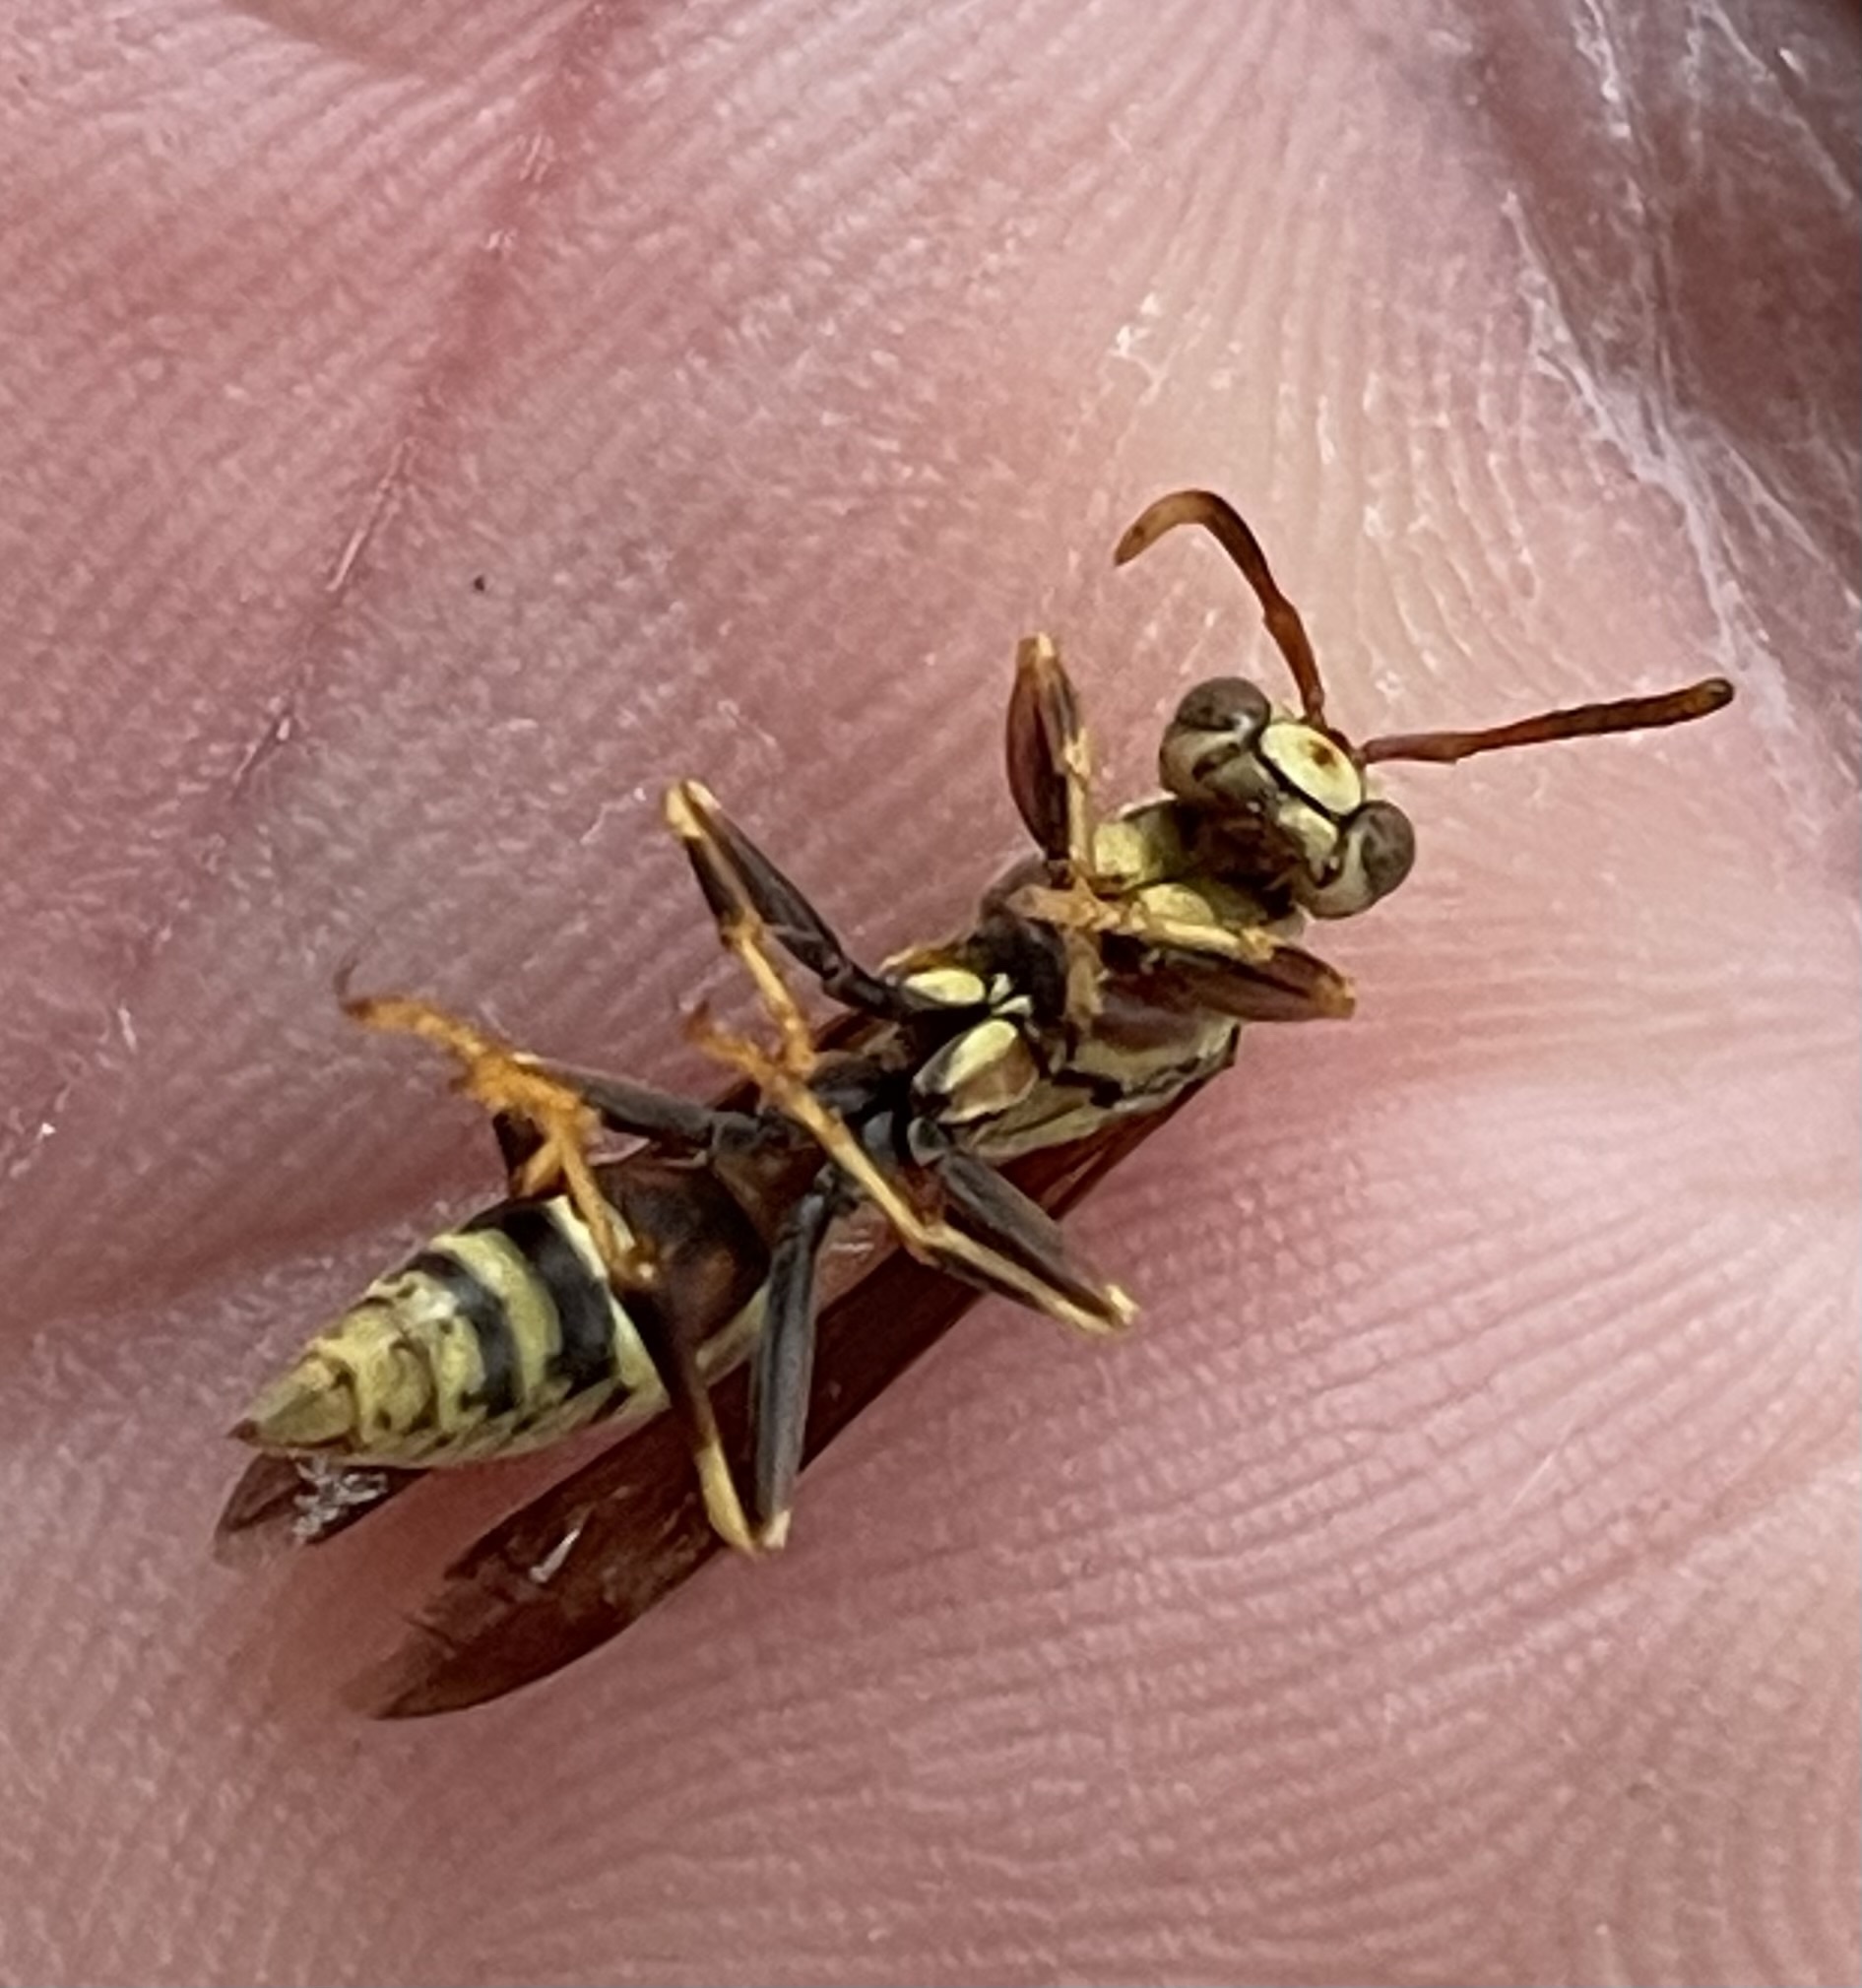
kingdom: Animalia
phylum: Arthropoda
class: Insecta
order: Hymenoptera
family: Eumenidae
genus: Polistes
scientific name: Polistes exclamans
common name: Paper wasp
